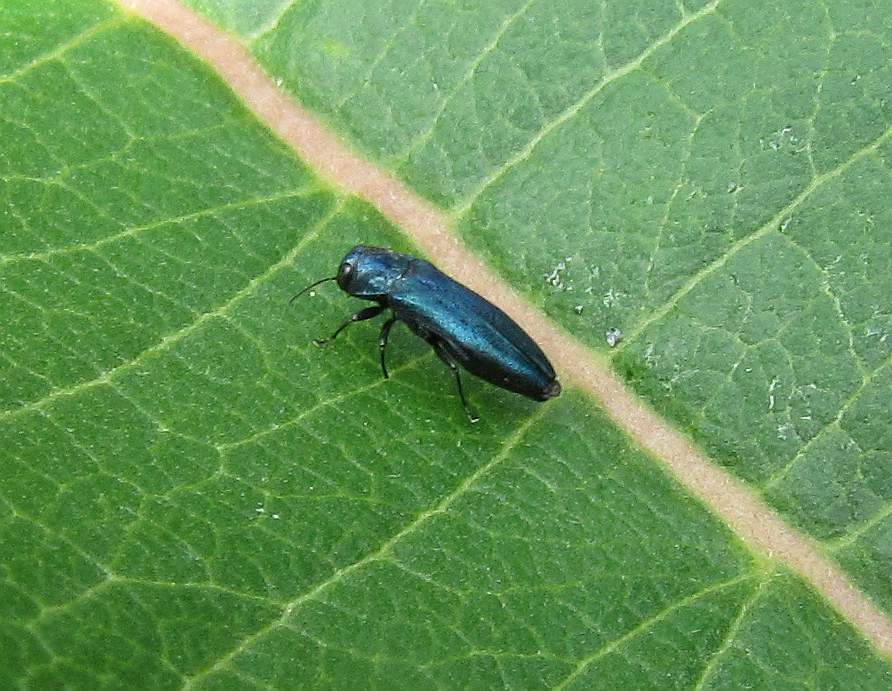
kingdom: Animalia
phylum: Arthropoda
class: Insecta
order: Coleoptera
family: Buprestidae
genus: Agrilus
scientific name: Agrilus cyanescens
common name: Bluish borer beetle
